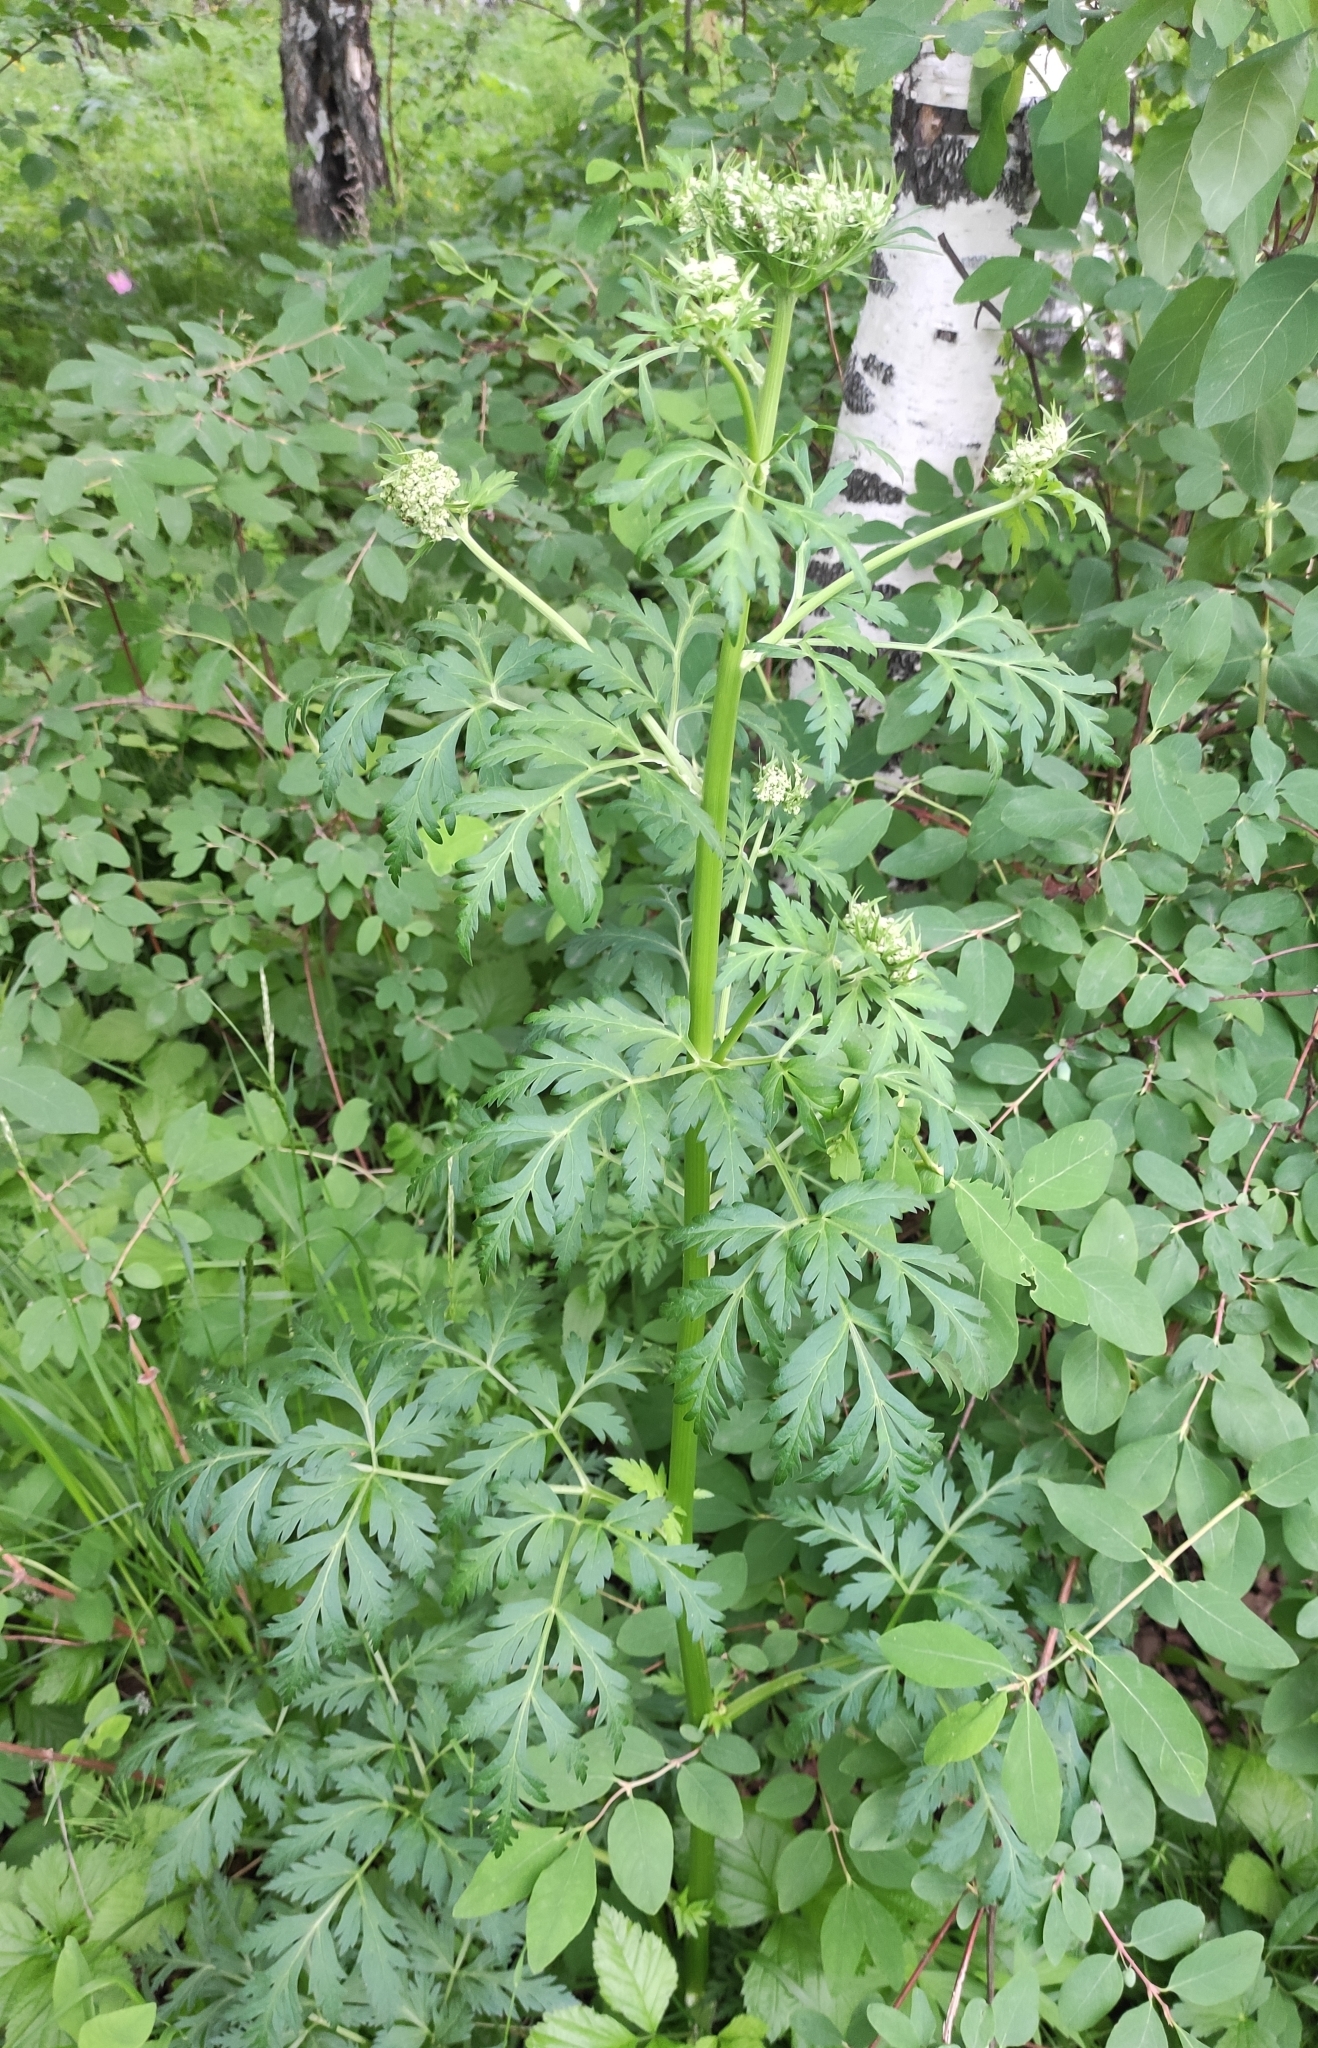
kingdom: Plantae
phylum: Tracheophyta
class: Magnoliopsida
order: Apiales
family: Apiaceae
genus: Pleurospermum
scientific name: Pleurospermum uralense
